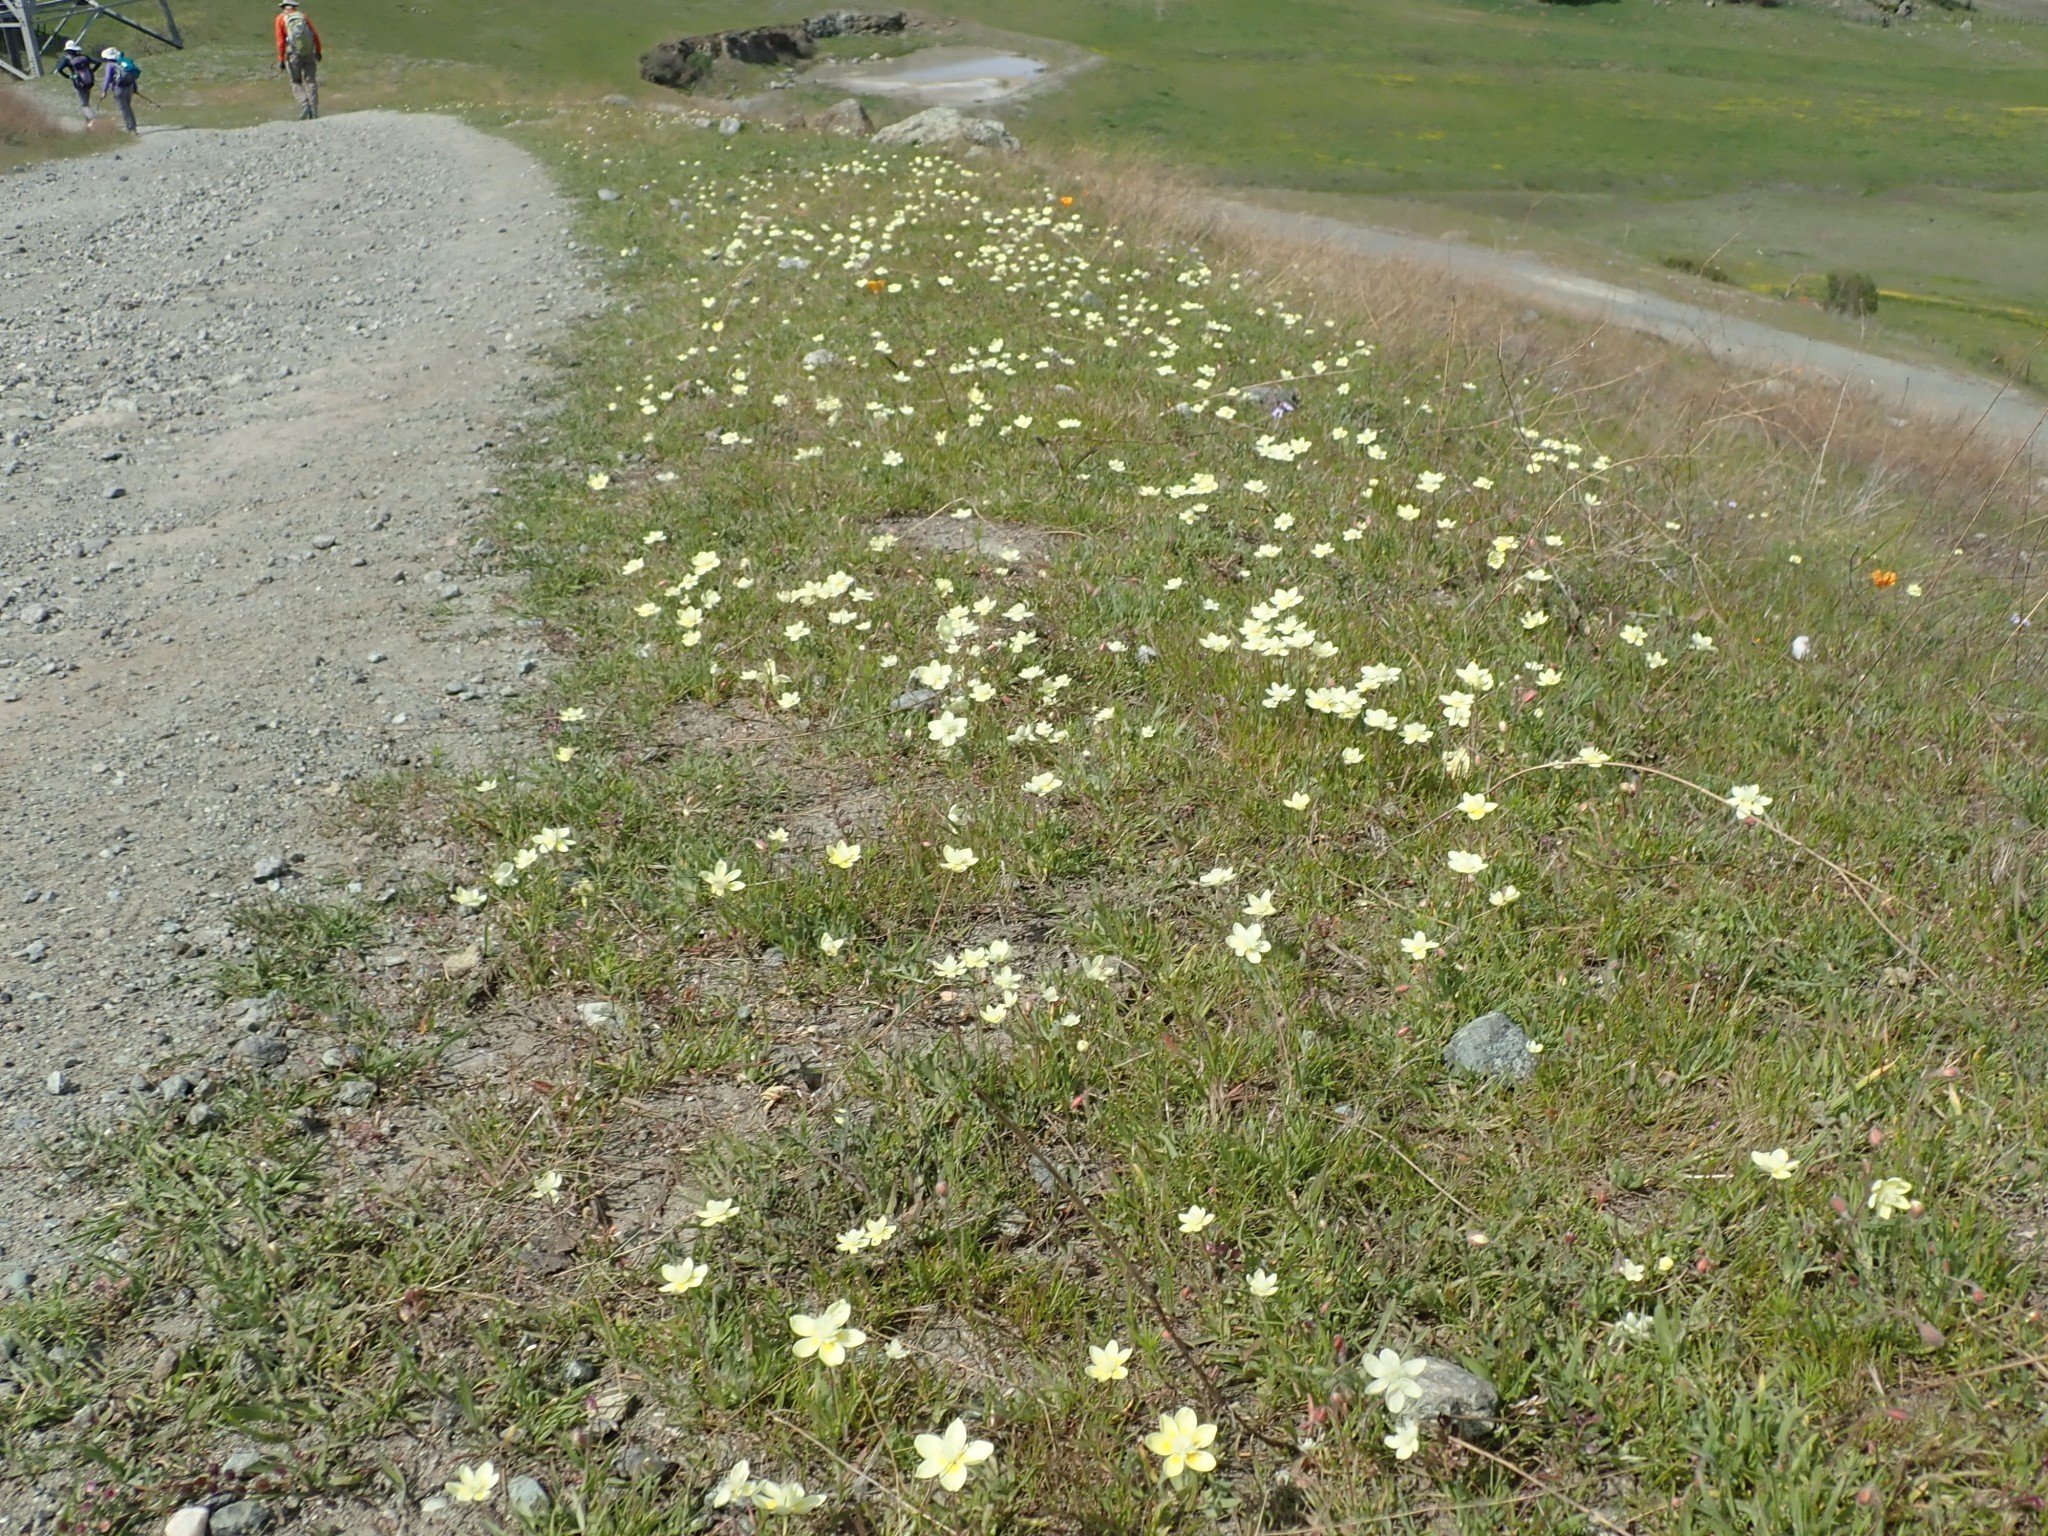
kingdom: Plantae
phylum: Tracheophyta
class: Magnoliopsida
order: Ranunculales
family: Papaveraceae
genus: Platystemon
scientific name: Platystemon californicus
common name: Cream-cups
